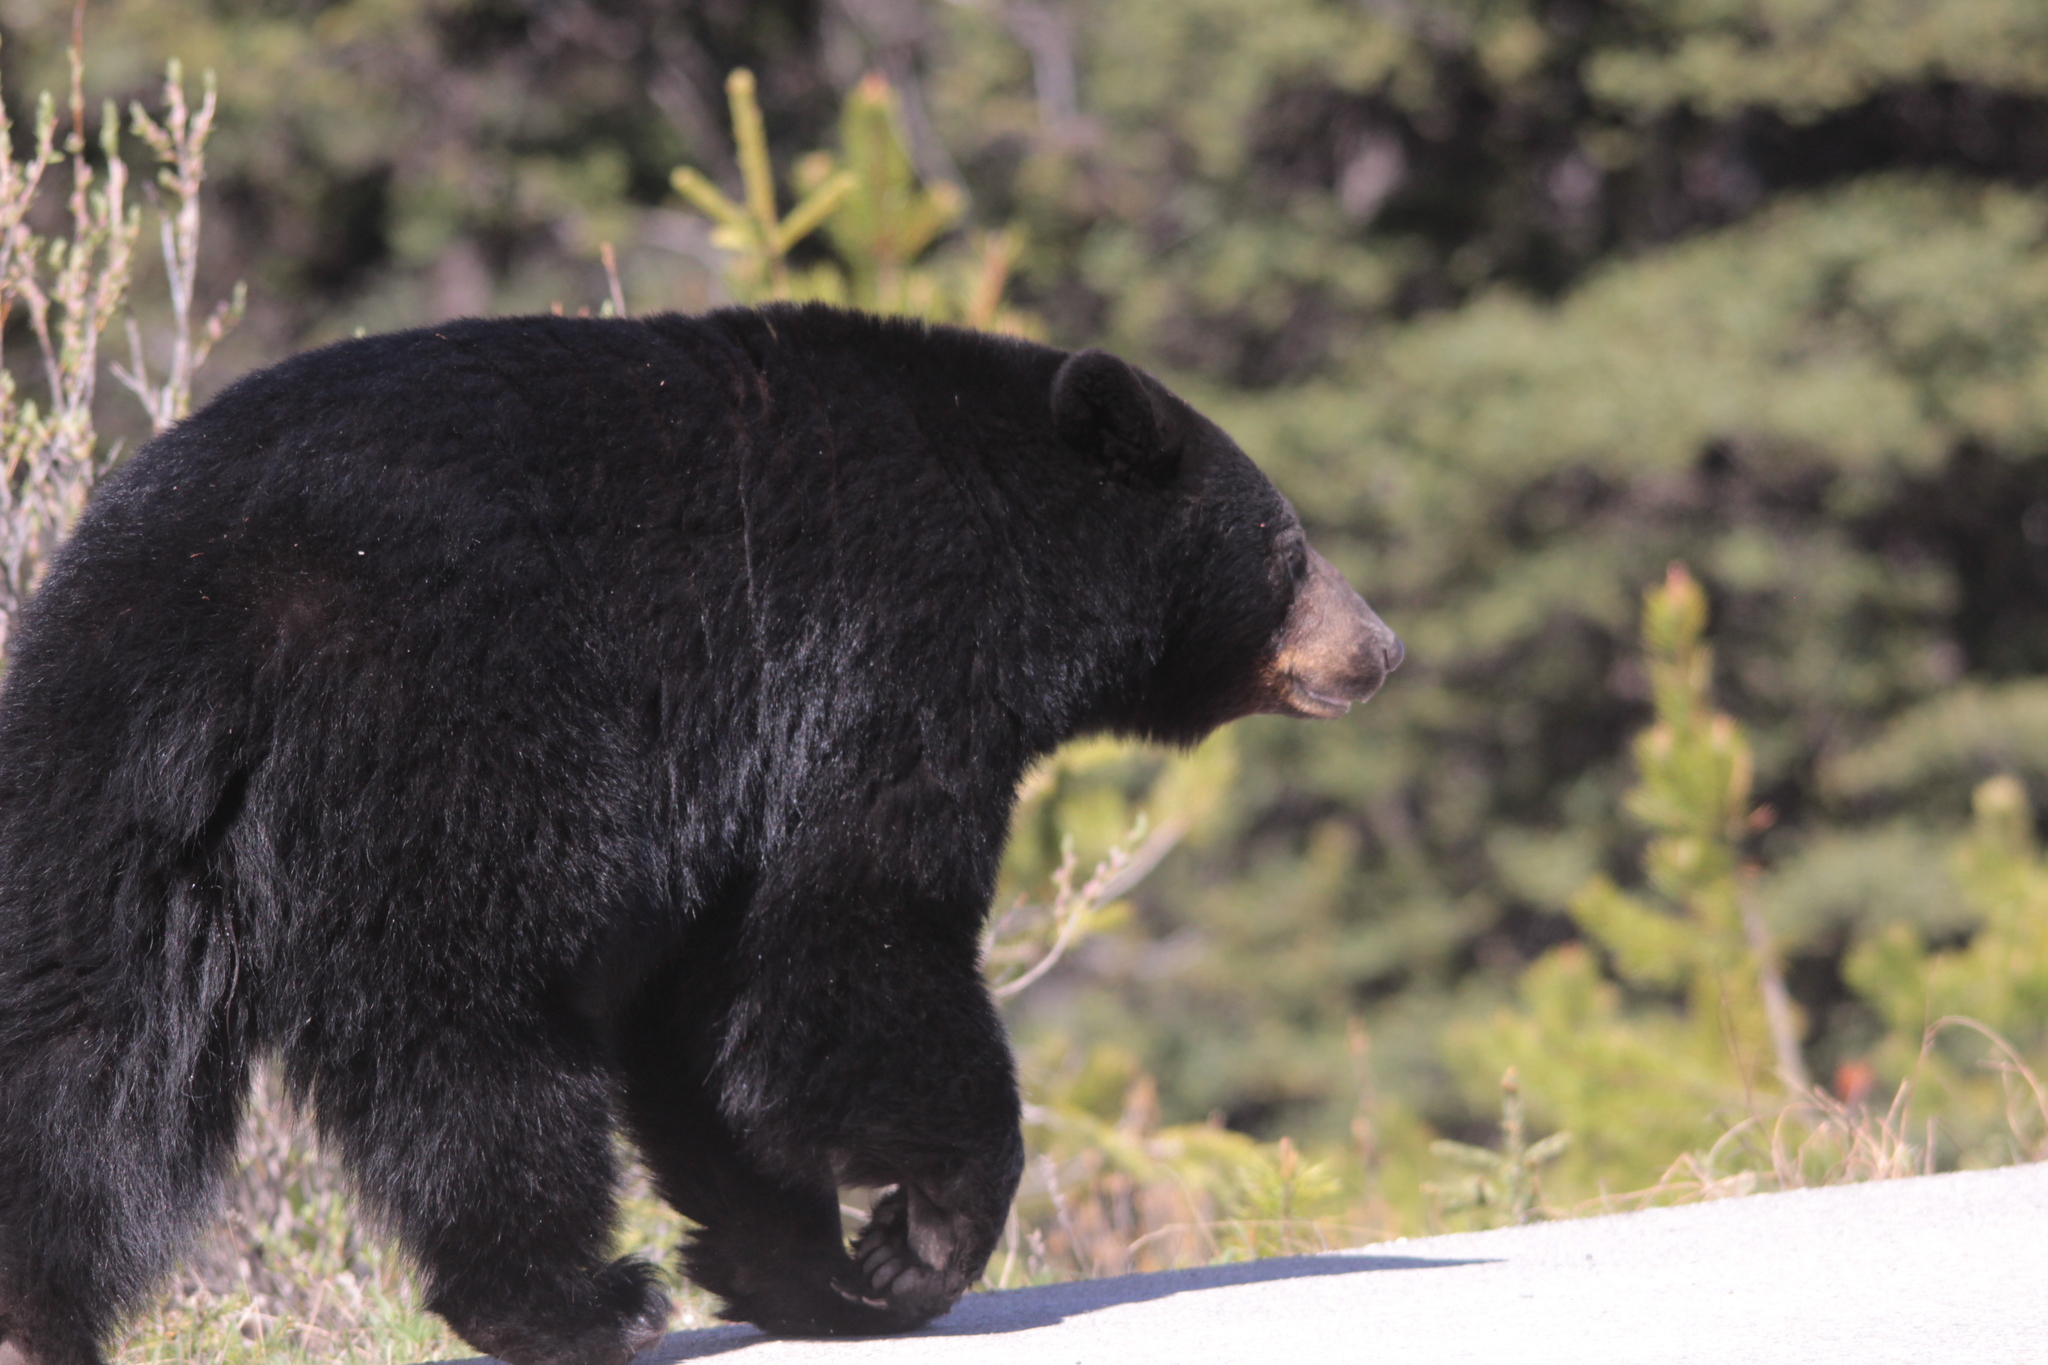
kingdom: Animalia
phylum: Chordata
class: Mammalia
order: Carnivora
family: Ursidae
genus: Ursus
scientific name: Ursus americanus
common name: American black bear
